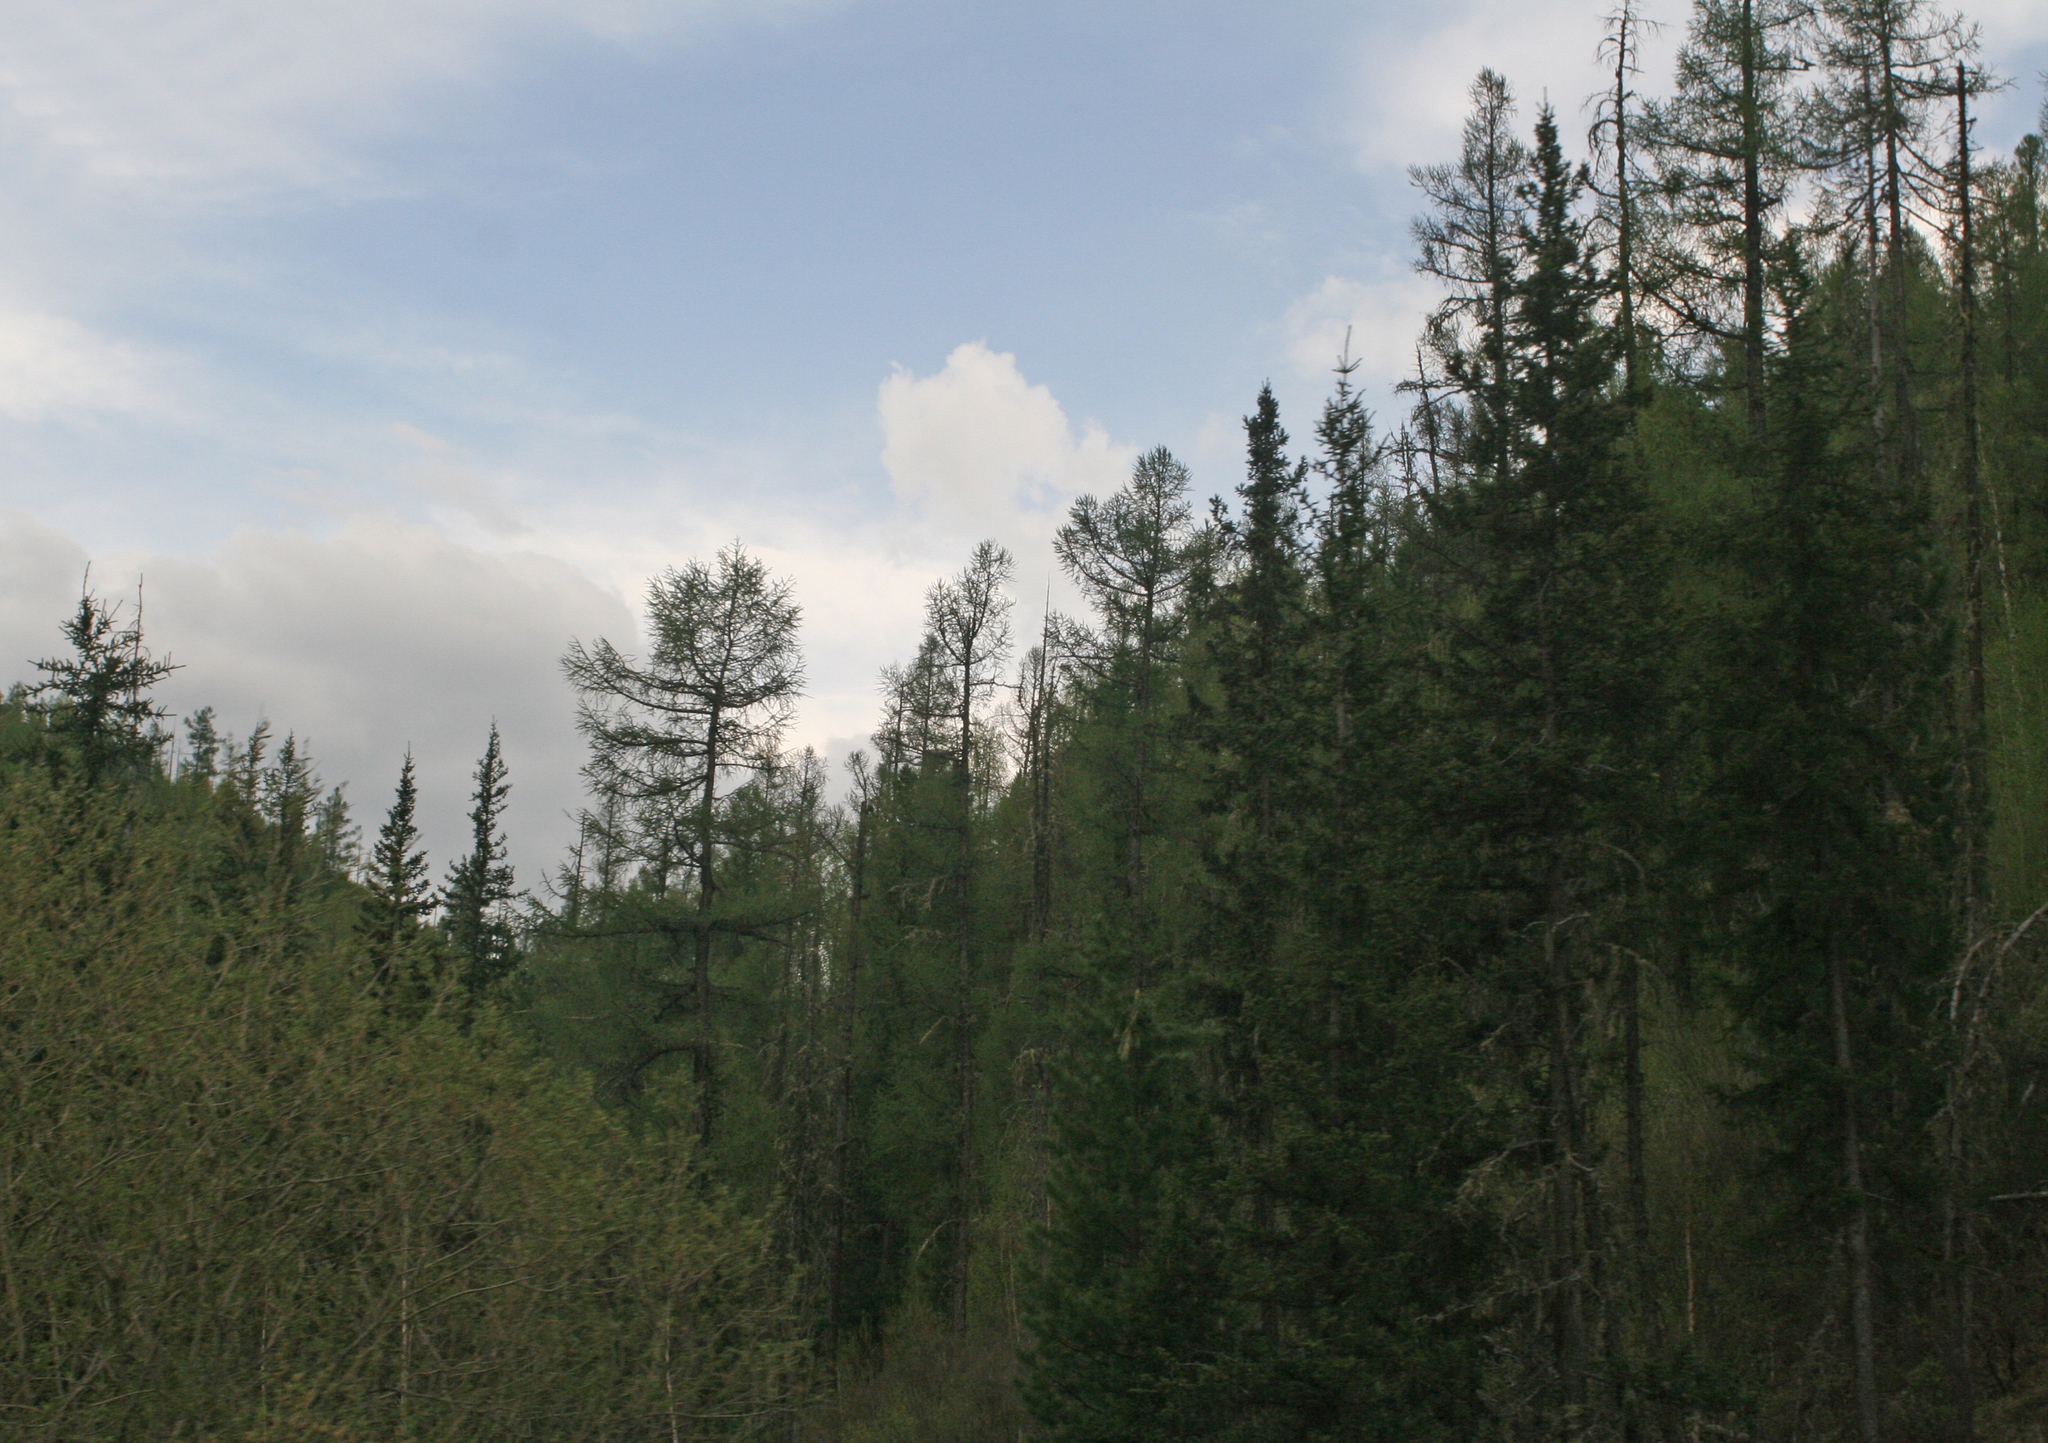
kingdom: Plantae
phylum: Tracheophyta
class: Pinopsida
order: Pinales
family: Pinaceae
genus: Larix
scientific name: Larix sibirica
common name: Siberian larch
